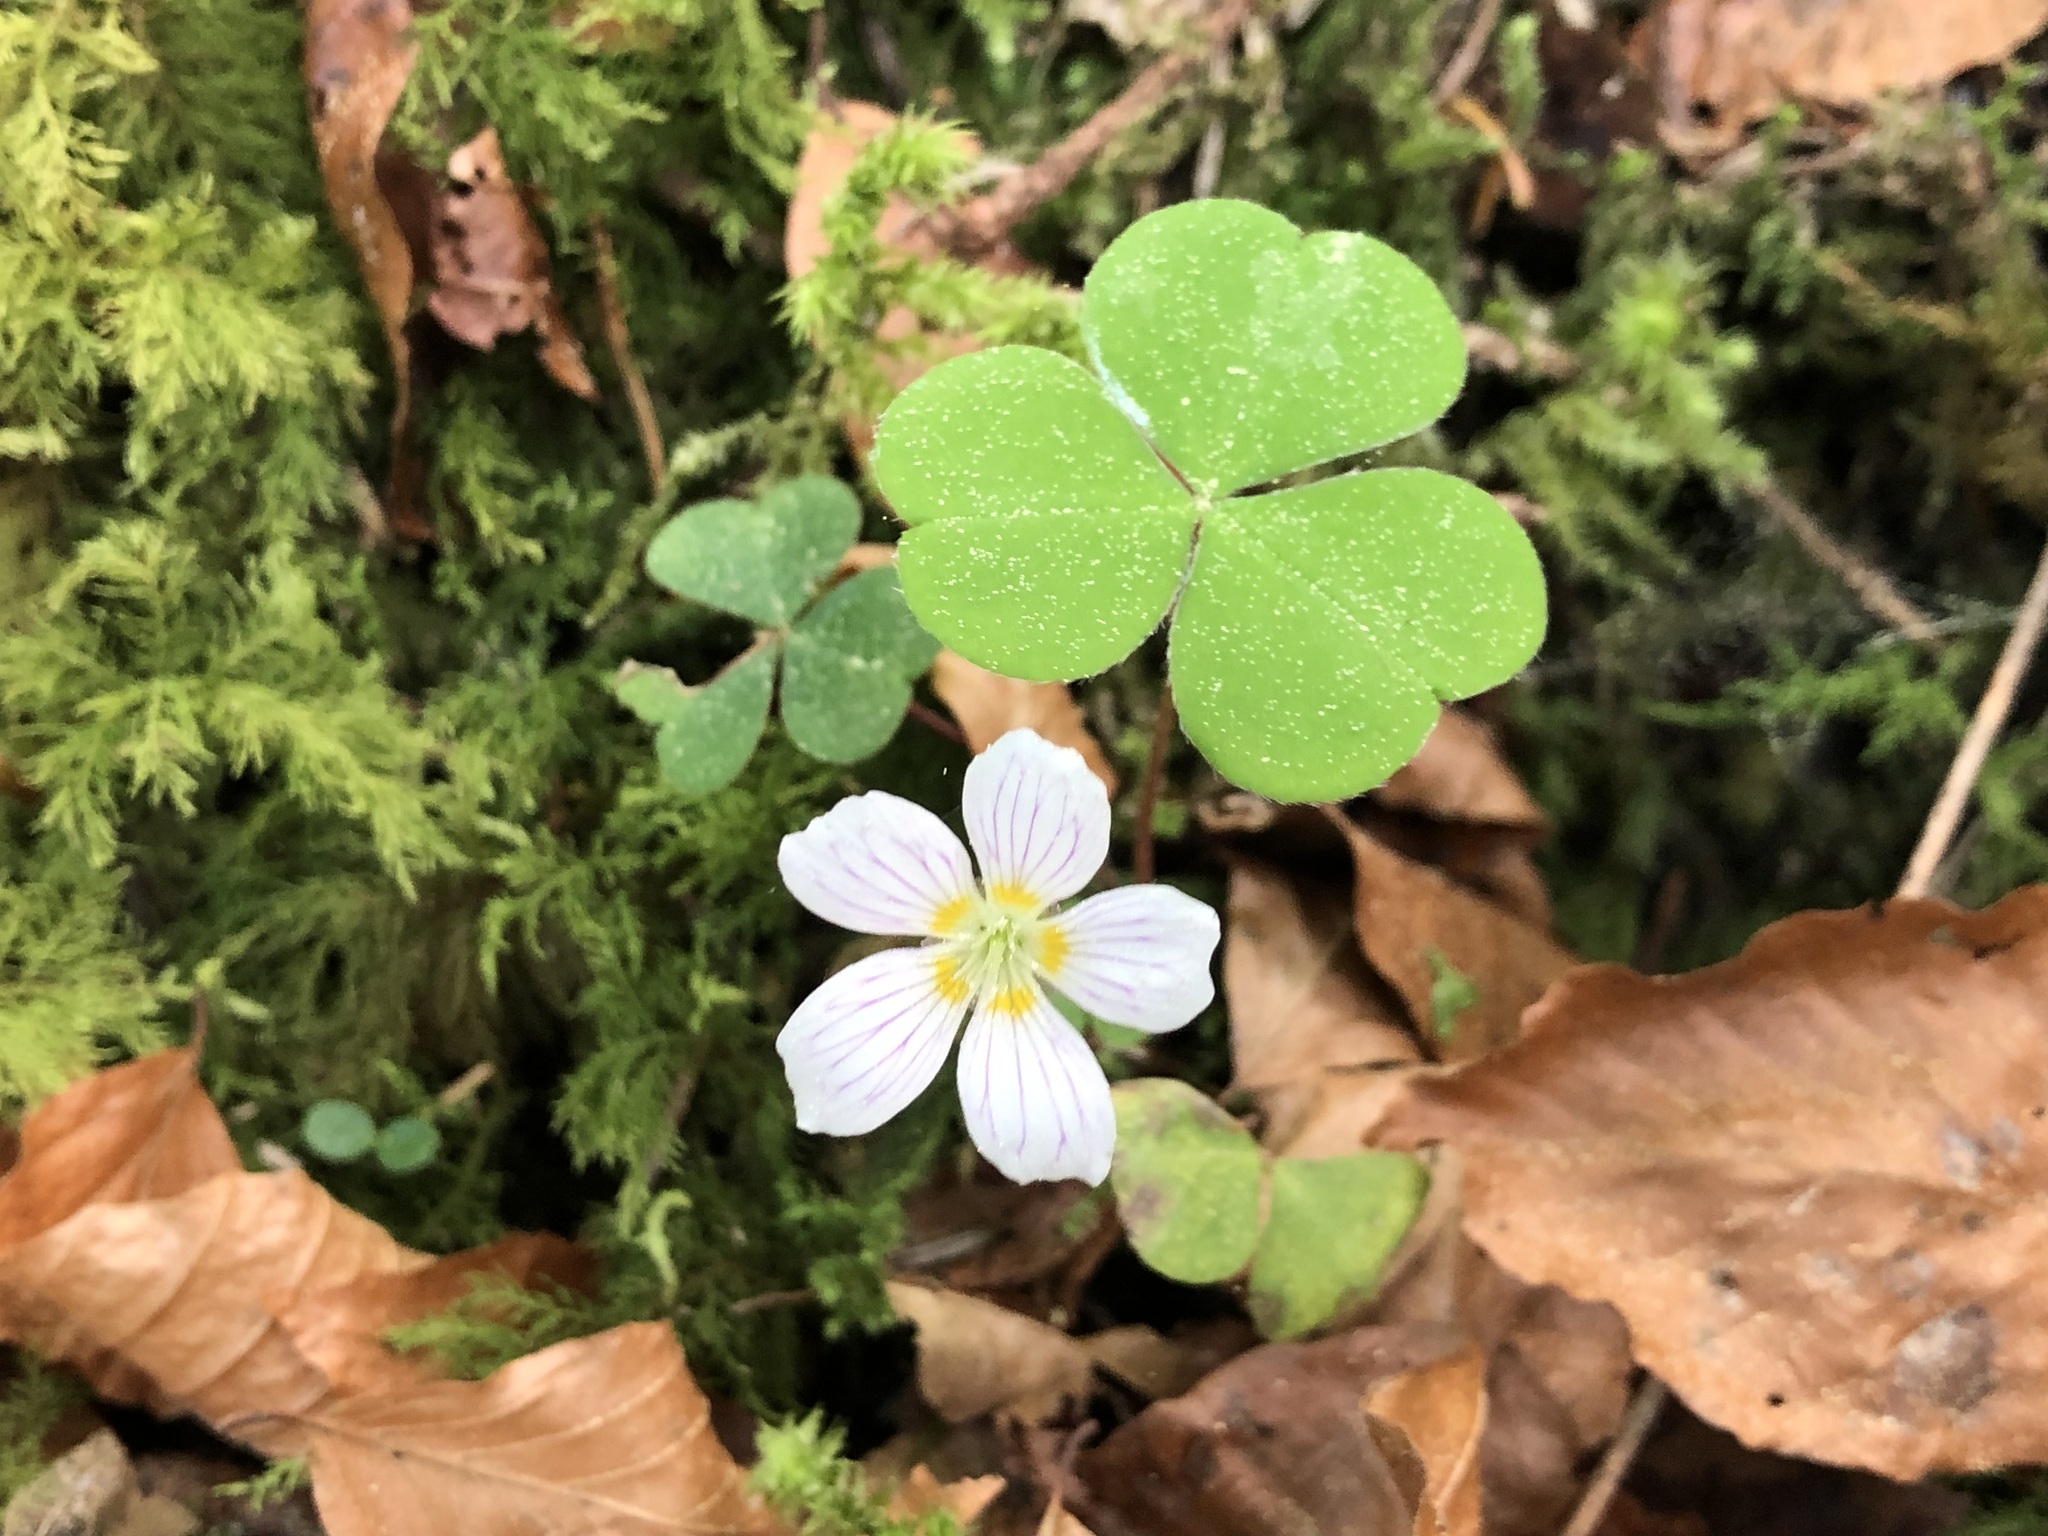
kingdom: Plantae
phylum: Tracheophyta
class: Magnoliopsida
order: Oxalidales
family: Oxalidaceae
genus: Oxalis
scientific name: Oxalis acetosella
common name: Wood-sorrel
